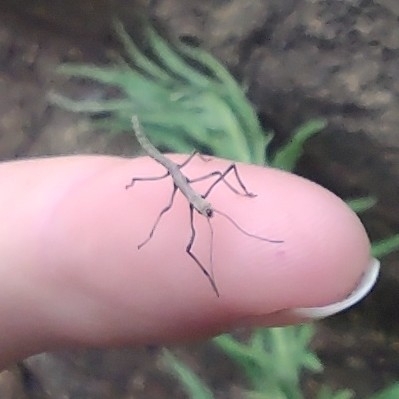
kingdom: Animalia
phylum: Arthropoda
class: Insecta
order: Phasmida
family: Lonchodidae
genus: Carausius
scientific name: Carausius morosus
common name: Indian stick insect
